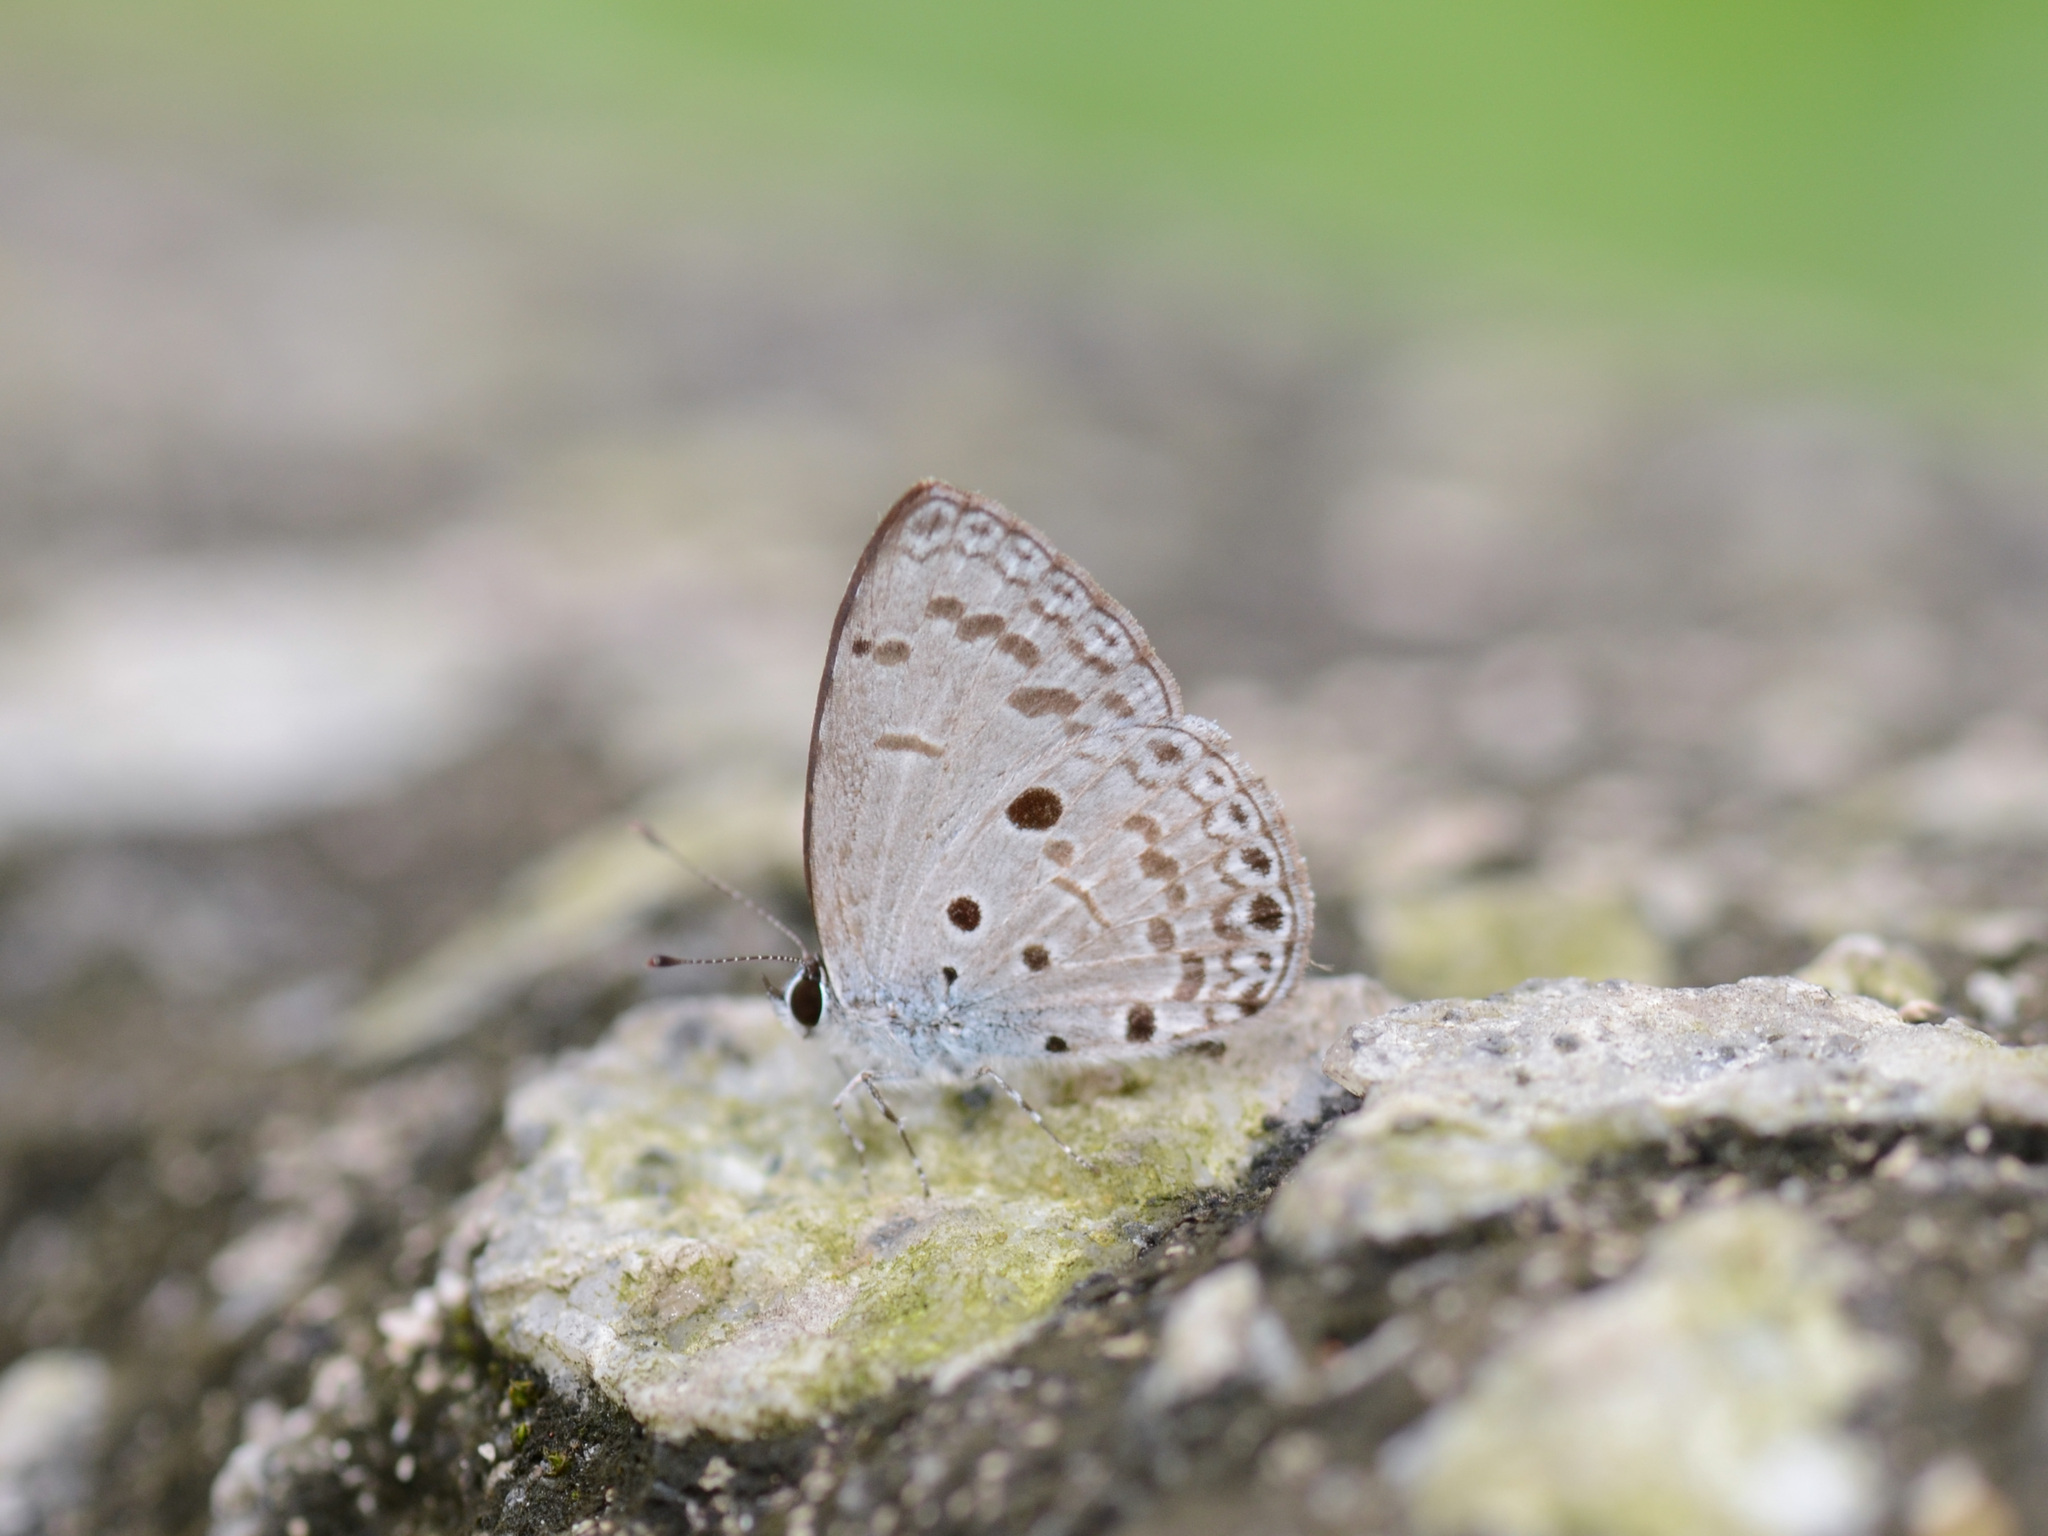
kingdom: Animalia
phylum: Arthropoda
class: Insecta
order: Lepidoptera
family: Lycaenidae
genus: Acytolepis
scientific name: Acytolepis puspa
